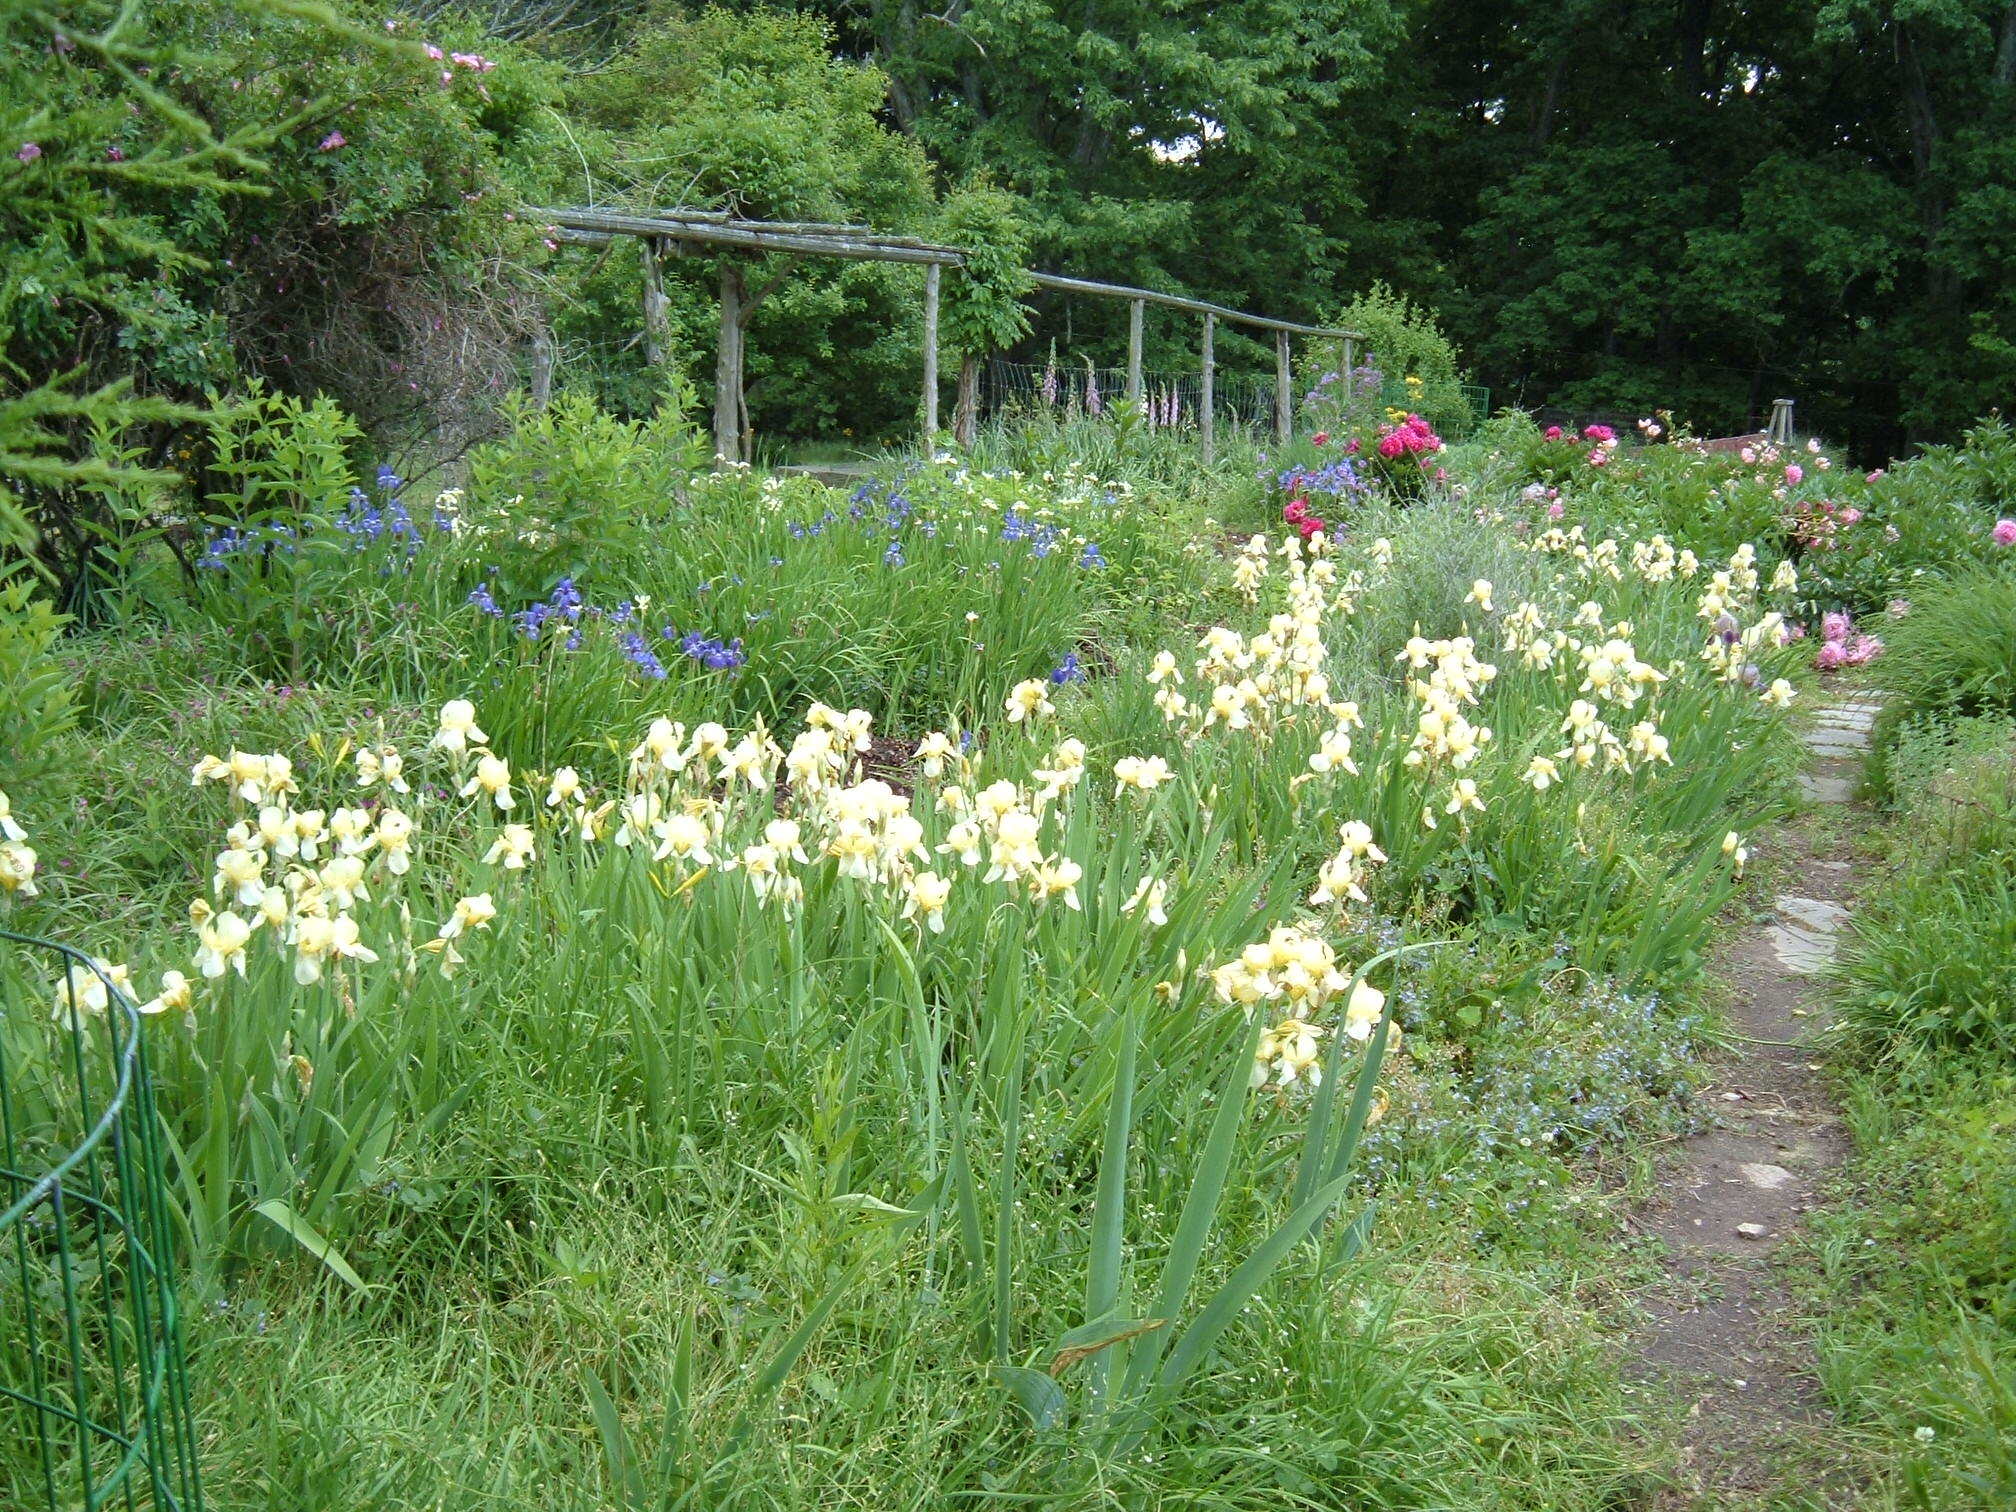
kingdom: Plantae
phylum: Tracheophyta
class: Liliopsida
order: Asparagales
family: Amaryllidaceae
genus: Narcissus
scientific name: Narcissus pseudonarcissus
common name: Daffodil
